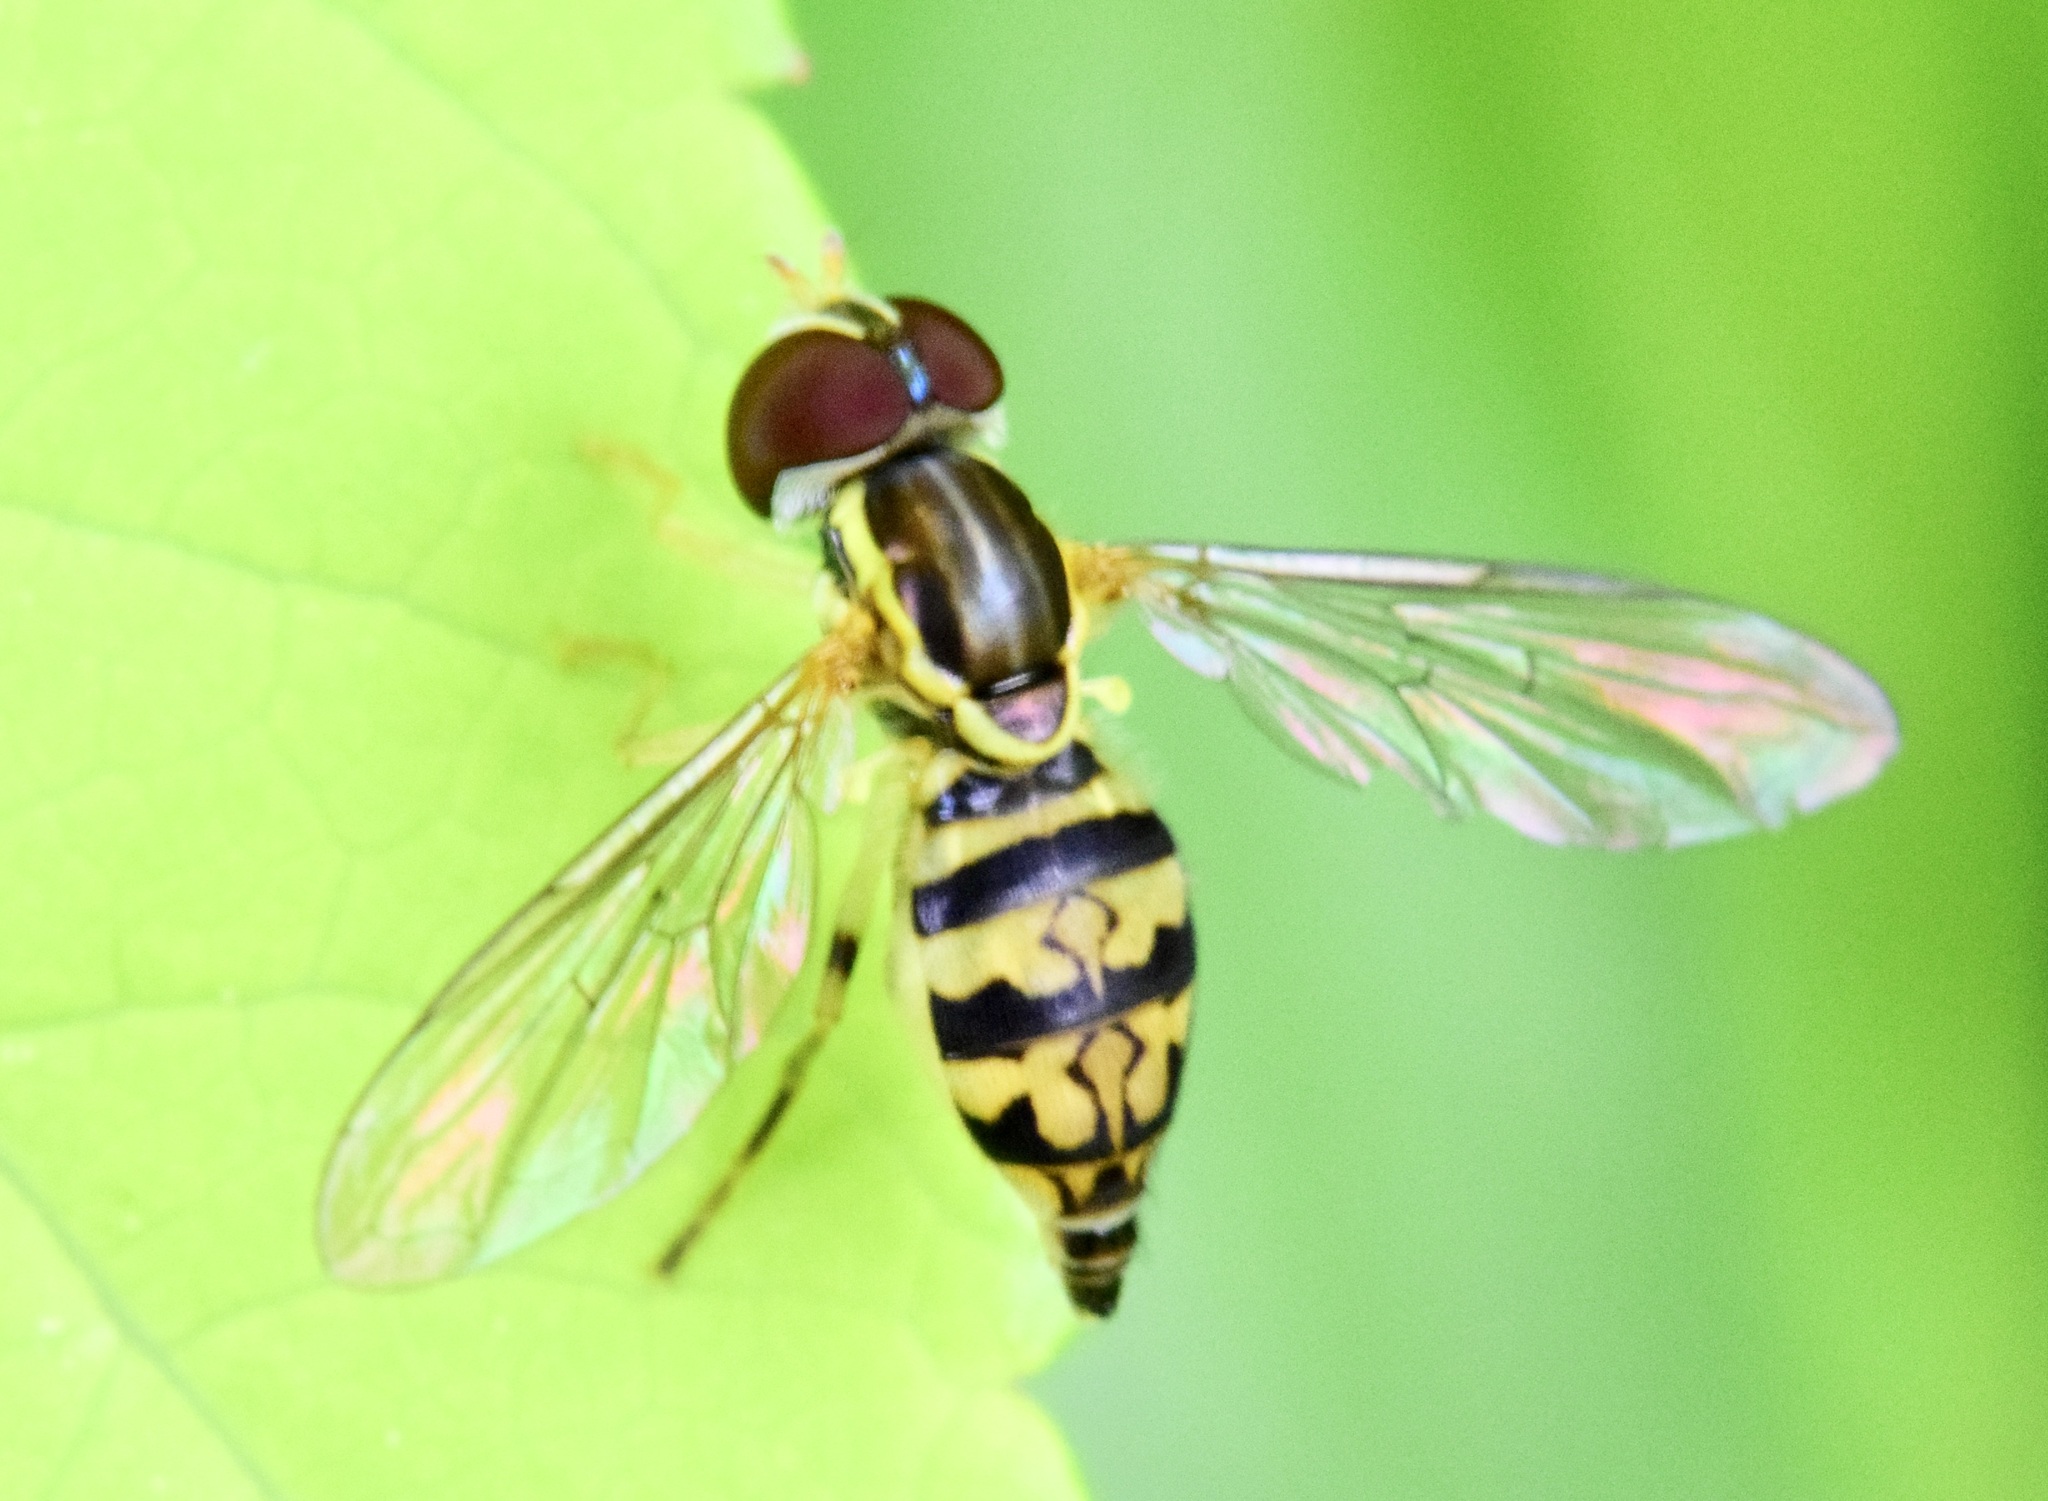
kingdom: Animalia
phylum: Arthropoda
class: Insecta
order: Diptera
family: Syrphidae
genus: Toxomerus
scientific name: Toxomerus geminatus
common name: Eastern calligrapher
